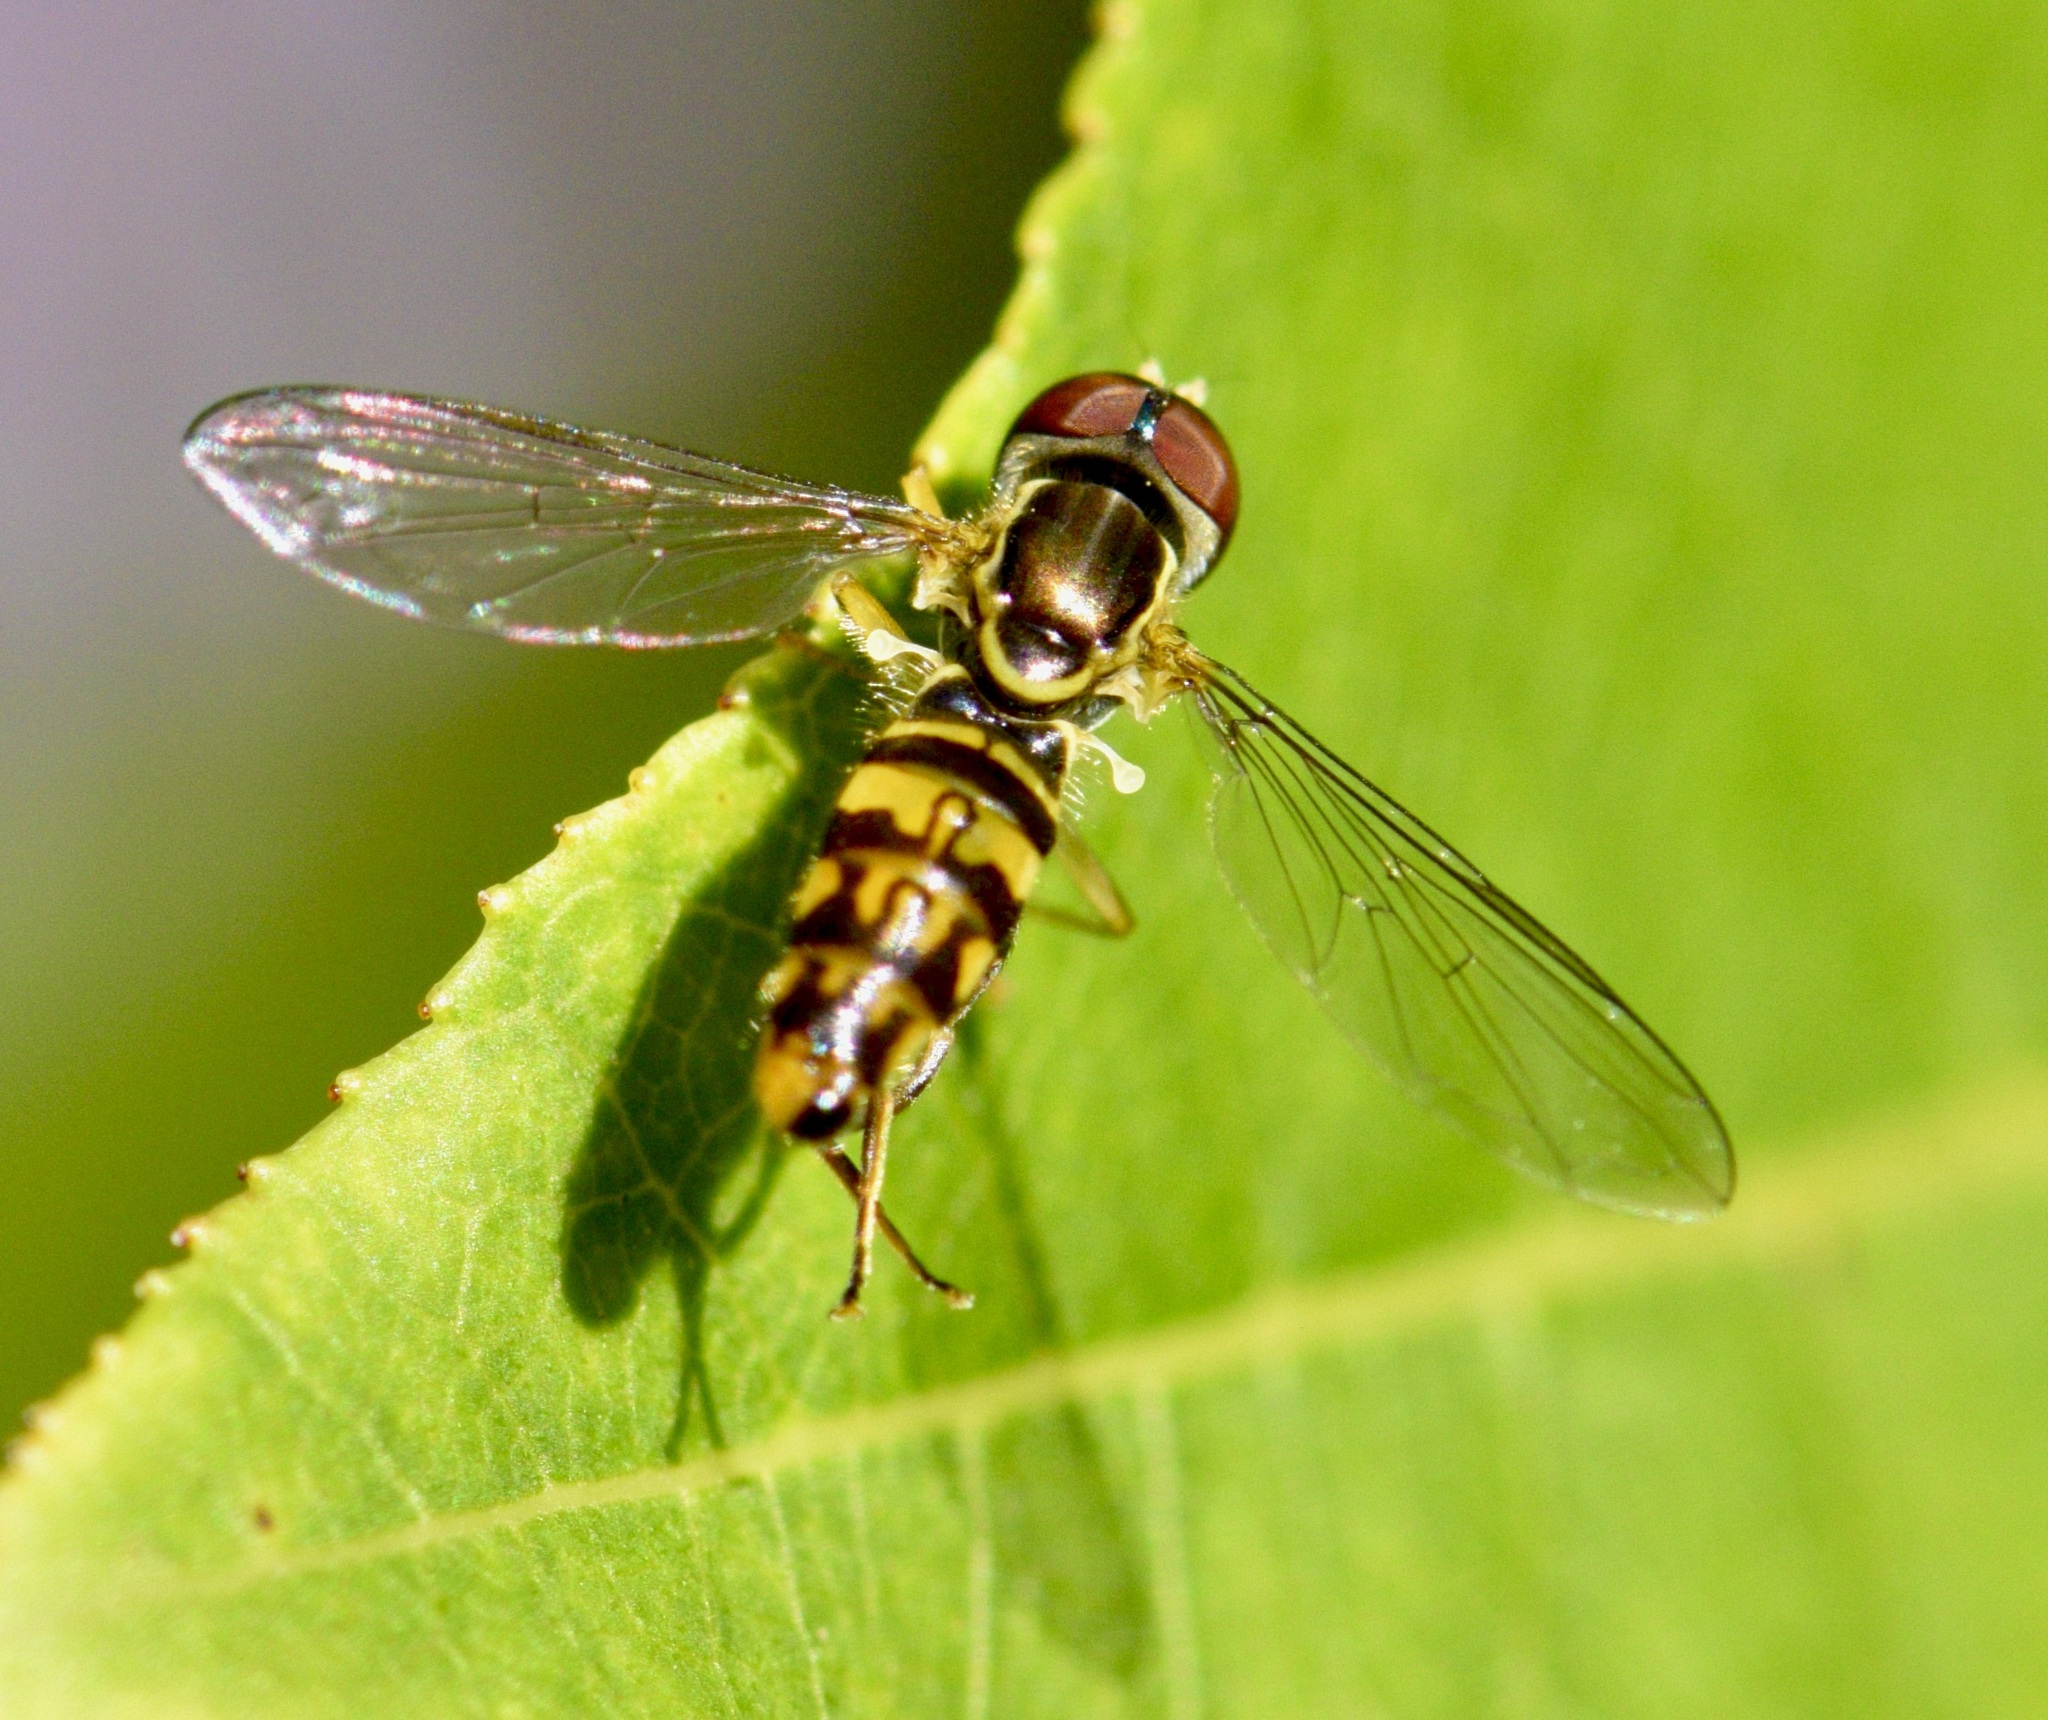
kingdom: Animalia
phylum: Arthropoda
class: Insecta
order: Diptera
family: Syrphidae
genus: Toxomerus
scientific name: Toxomerus geminatus
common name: Eastern calligrapher
